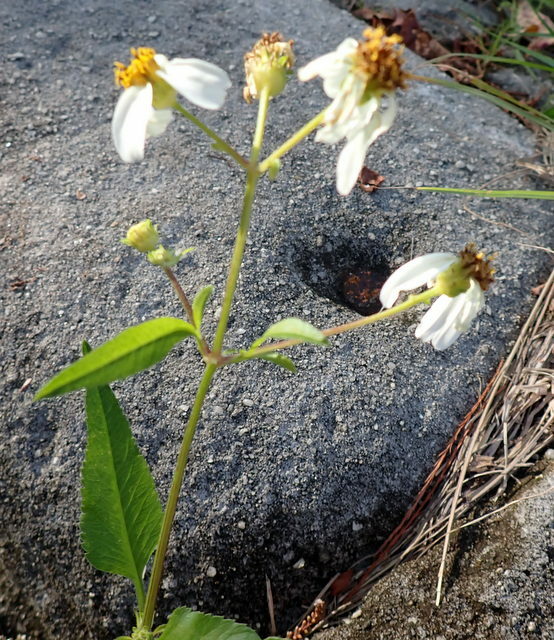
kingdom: Plantae
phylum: Tracheophyta
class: Magnoliopsida
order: Asterales
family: Asteraceae
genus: Bidens
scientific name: Bidens alba
